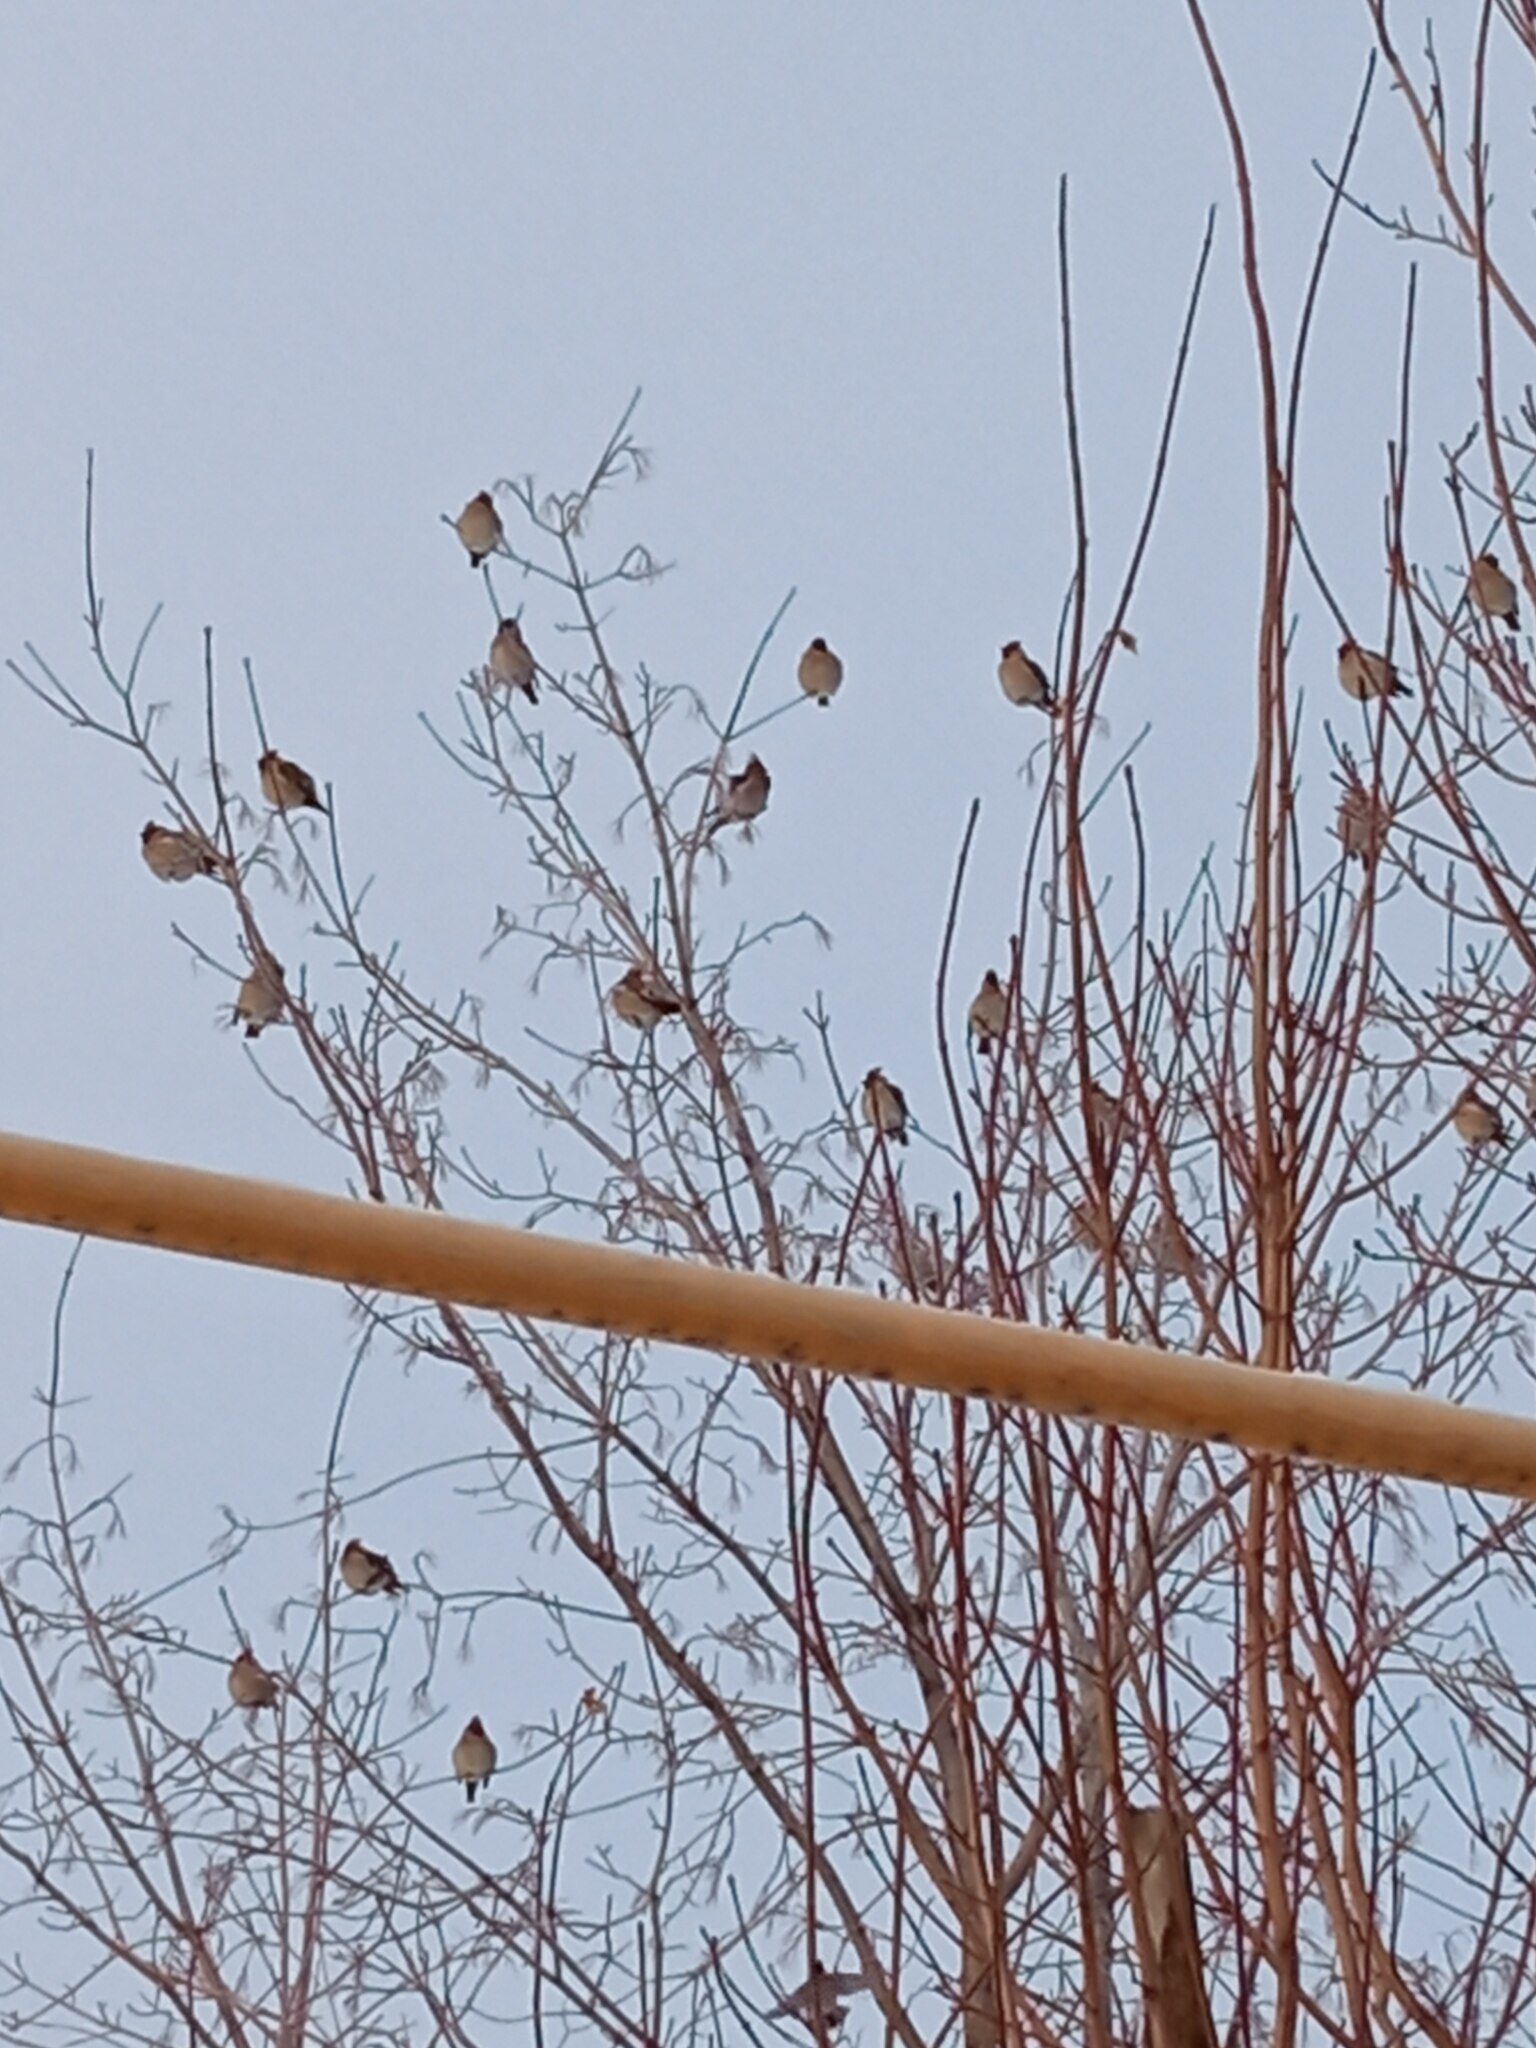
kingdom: Animalia
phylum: Chordata
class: Aves
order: Passeriformes
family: Bombycillidae
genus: Bombycilla
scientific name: Bombycilla garrulus
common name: Bohemian waxwing
